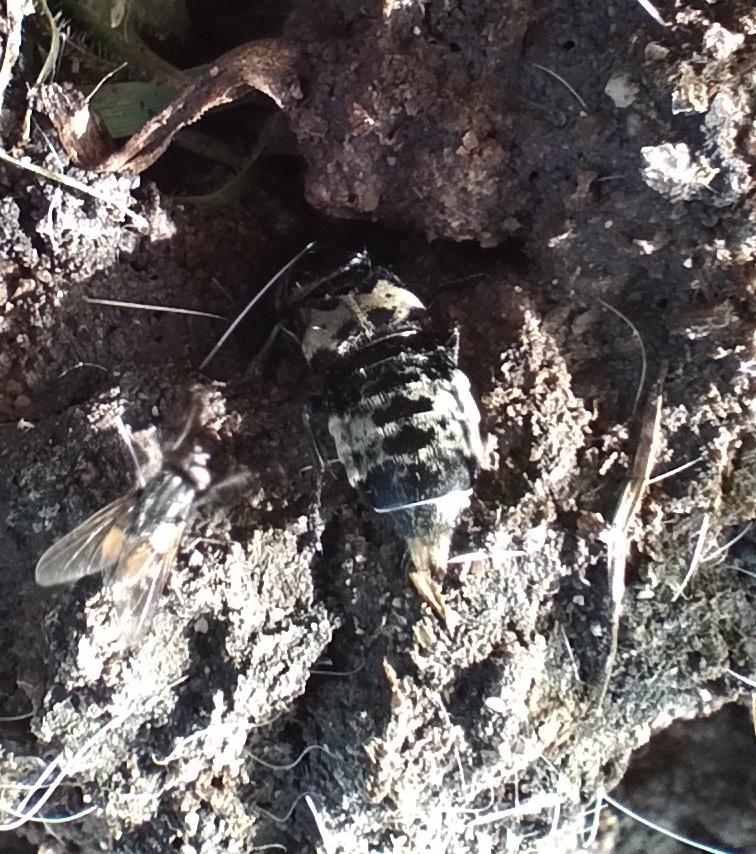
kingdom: Animalia
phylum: Arthropoda
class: Insecta
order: Coleoptera
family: Staphylinidae
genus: Creophilus
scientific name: Creophilus maxillosus
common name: Hairy rove beetle
